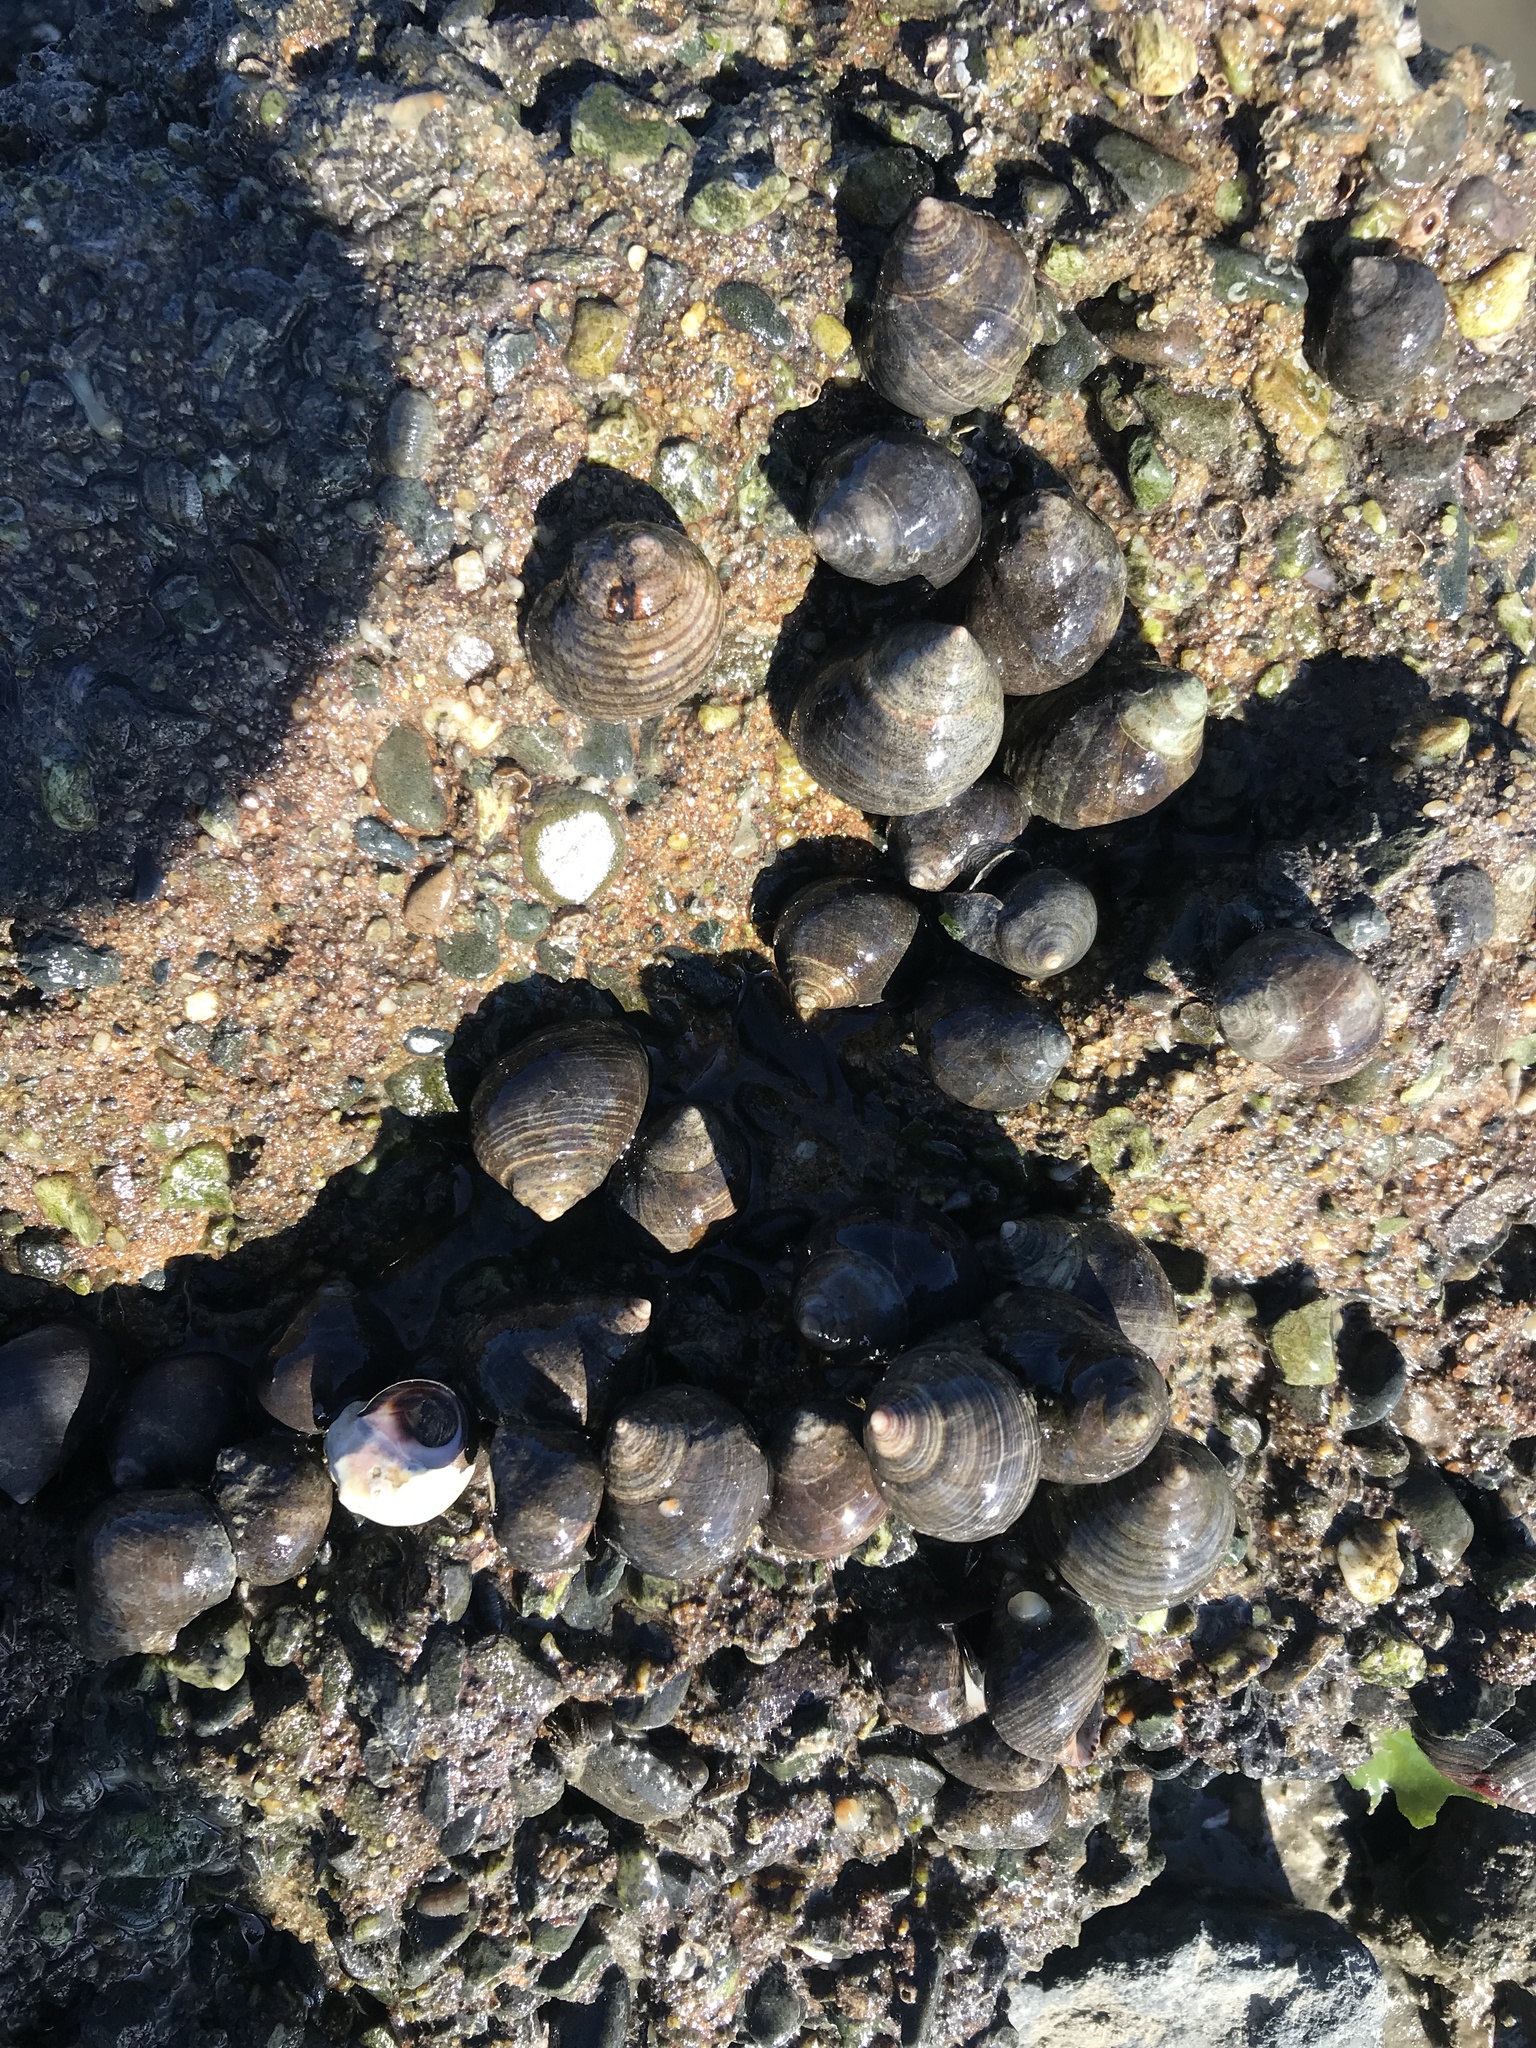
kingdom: Animalia
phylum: Mollusca
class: Gastropoda
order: Littorinimorpha
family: Littorinidae
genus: Littorina
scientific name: Littorina littorea
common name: Common periwinkle
